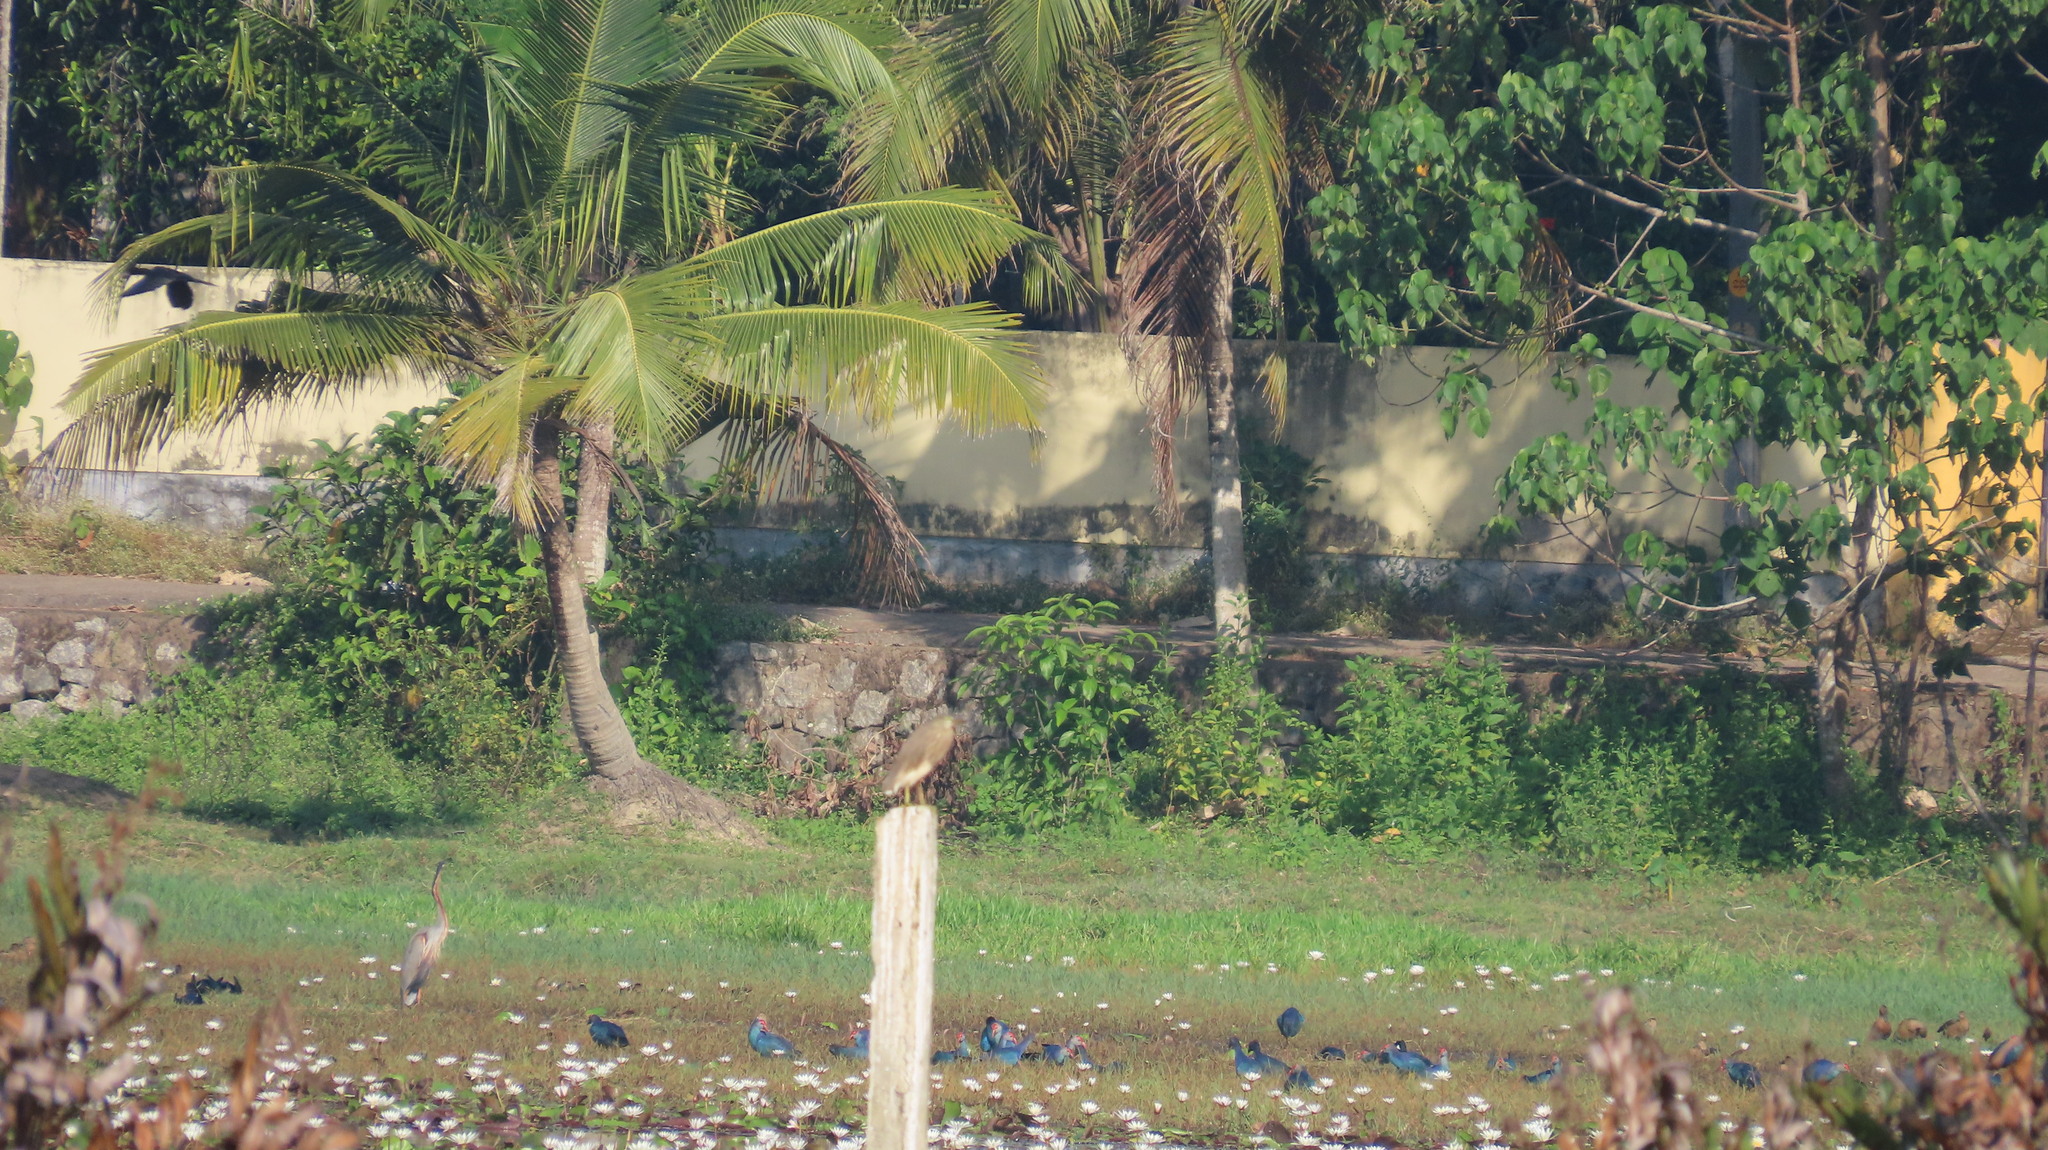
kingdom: Animalia
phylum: Chordata
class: Aves
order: Gruiformes
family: Rallidae
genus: Porphyrio
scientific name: Porphyrio porphyrio
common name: Purple swamphen
